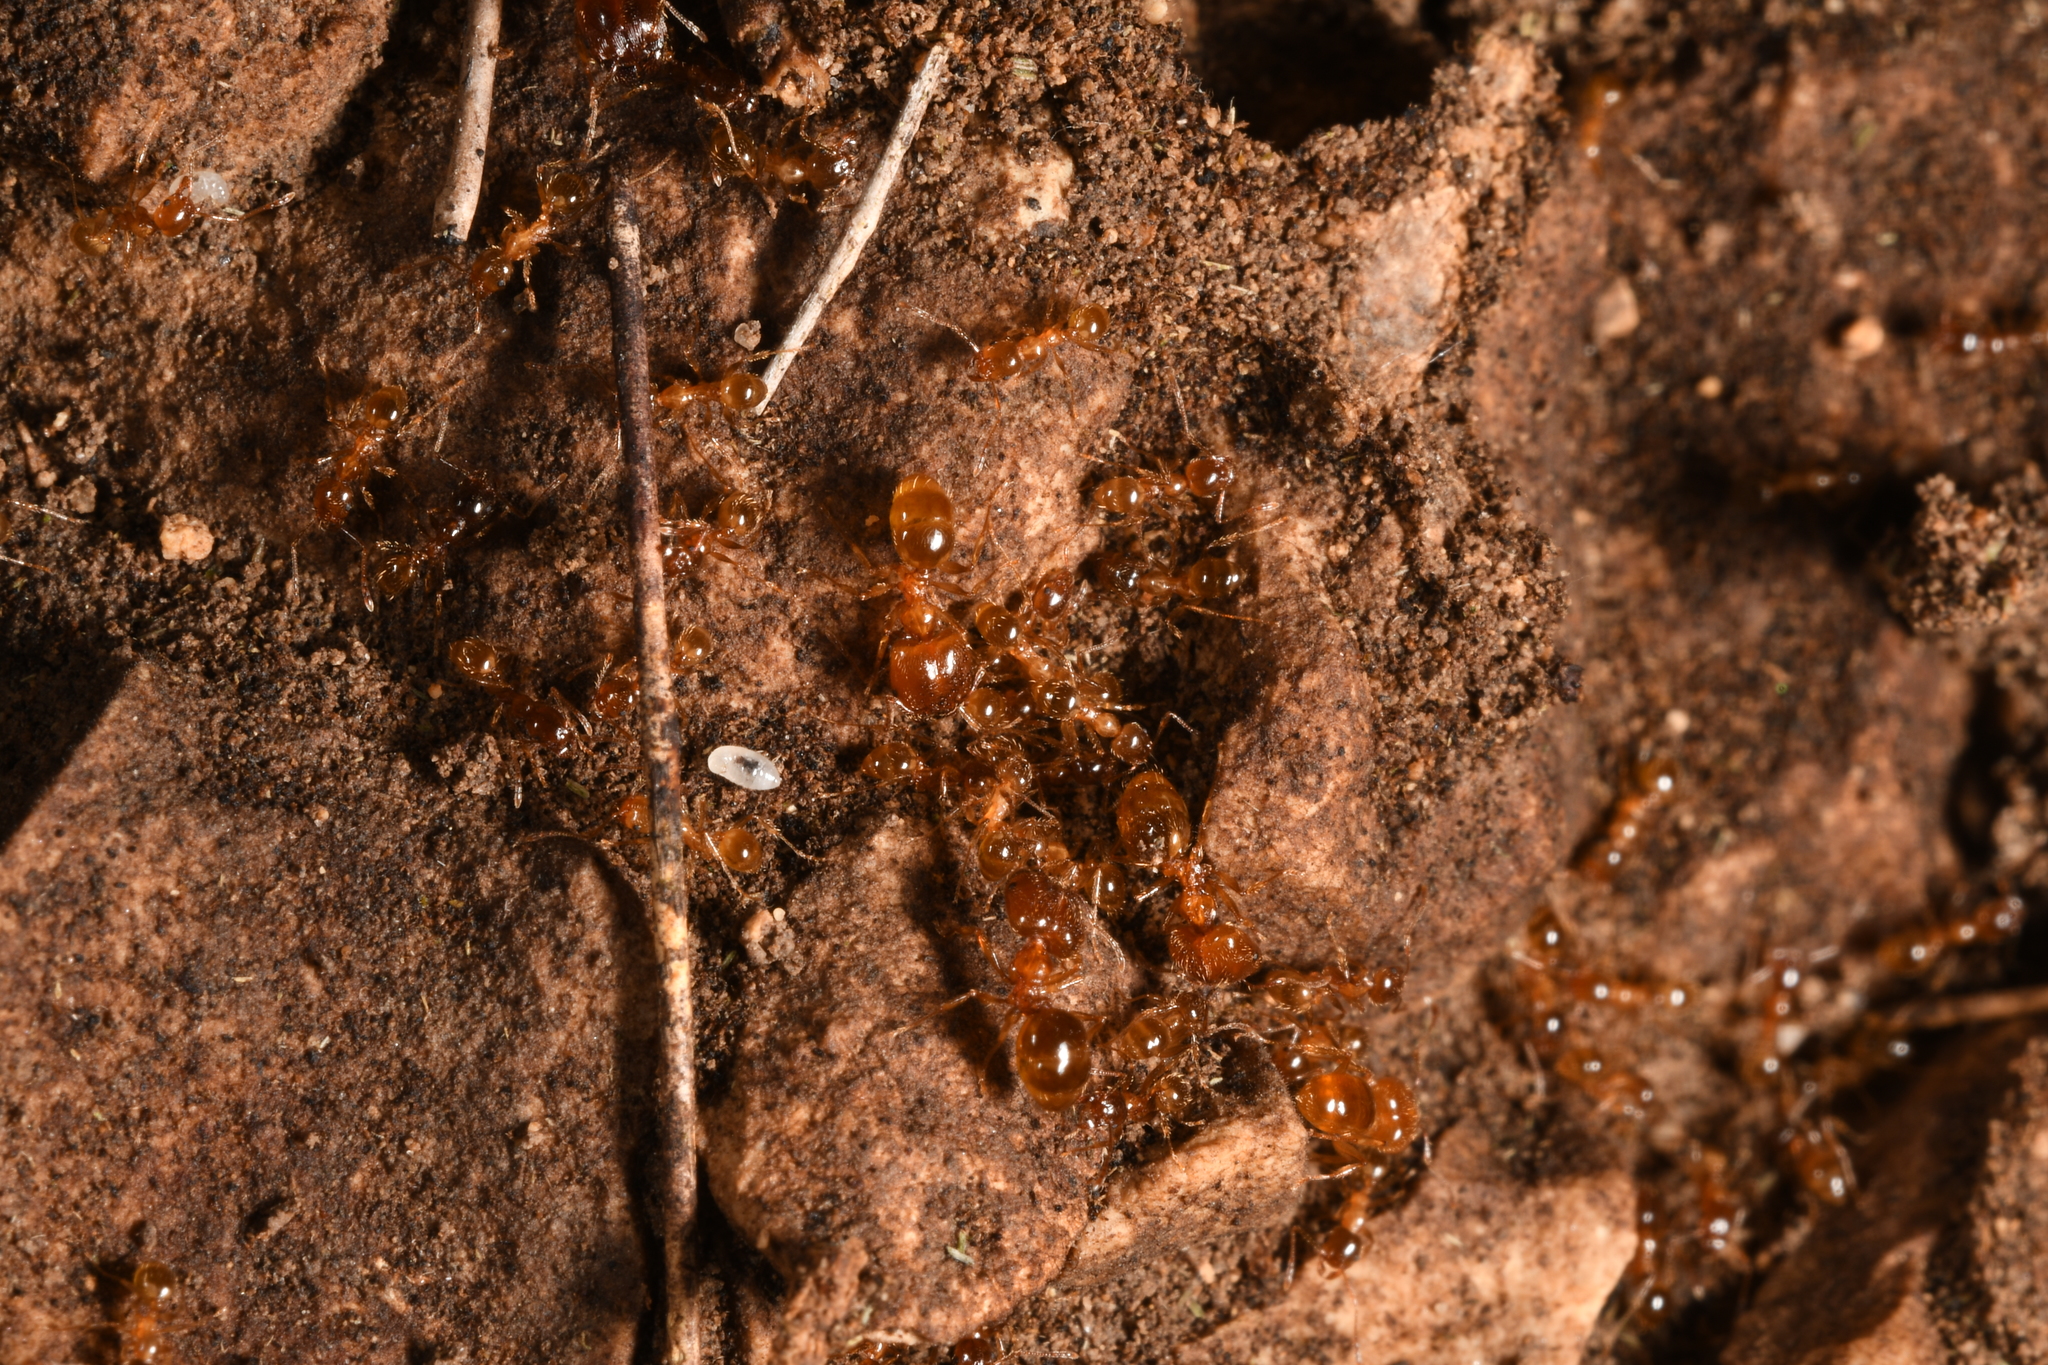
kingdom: Animalia
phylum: Arthropoda
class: Insecta
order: Hymenoptera
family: Formicidae
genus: Pheidole
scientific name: Pheidole pallidula
